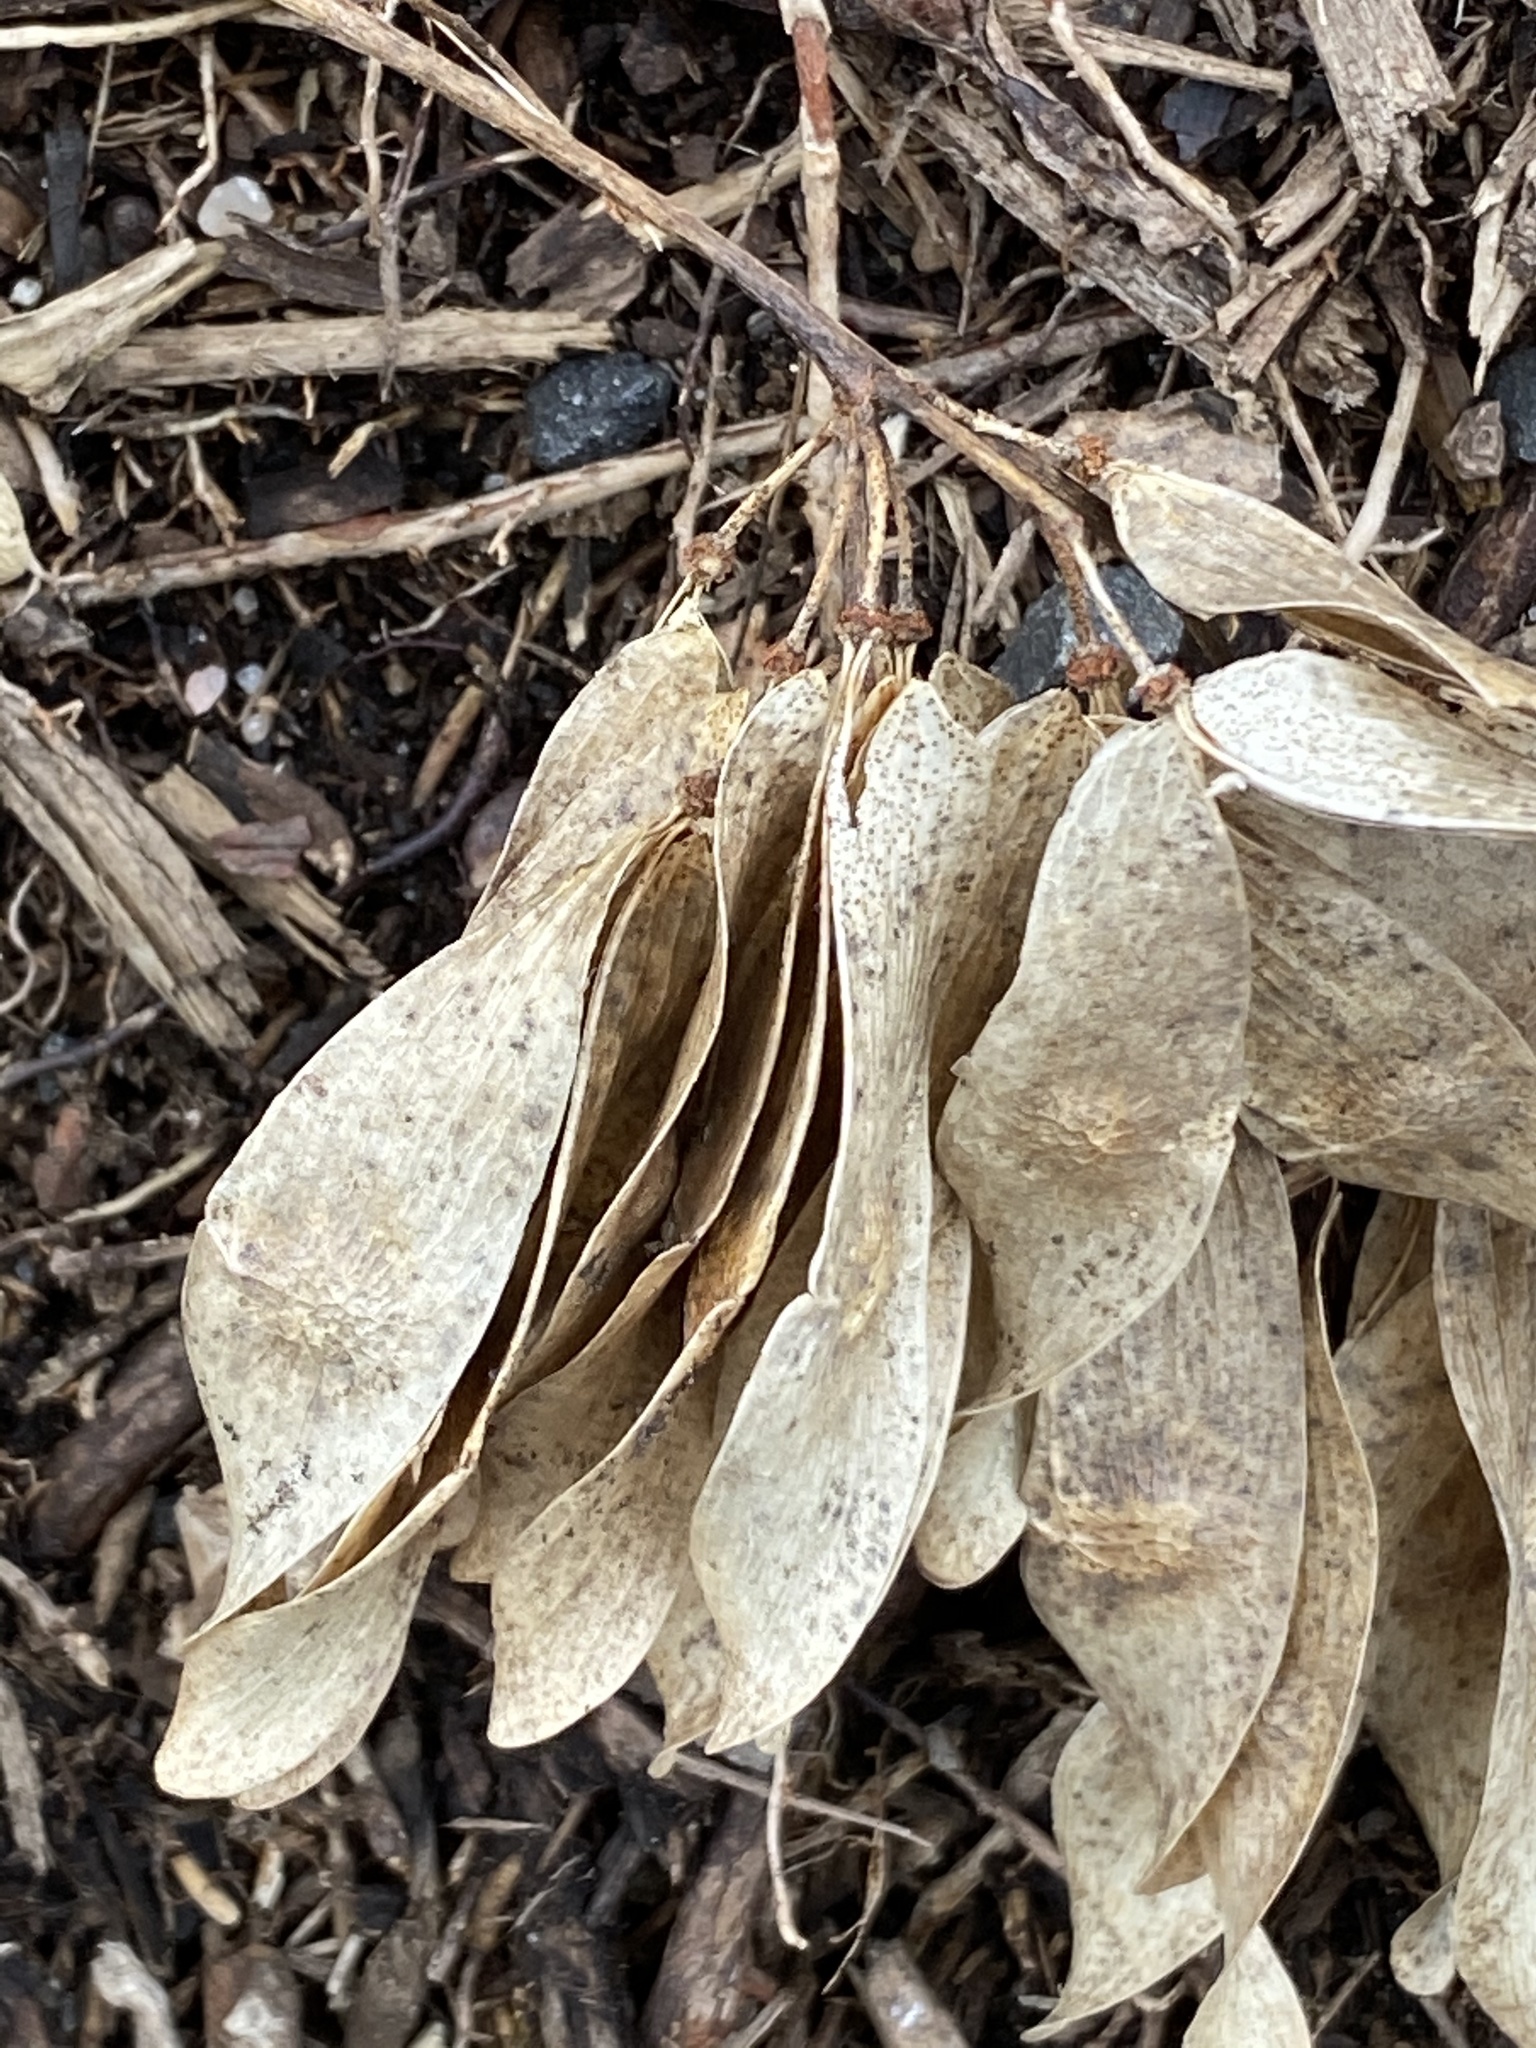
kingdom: Plantae
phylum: Tracheophyta
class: Magnoliopsida
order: Sapindales
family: Simaroubaceae
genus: Ailanthus
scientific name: Ailanthus altissima
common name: Tree-of-heaven
